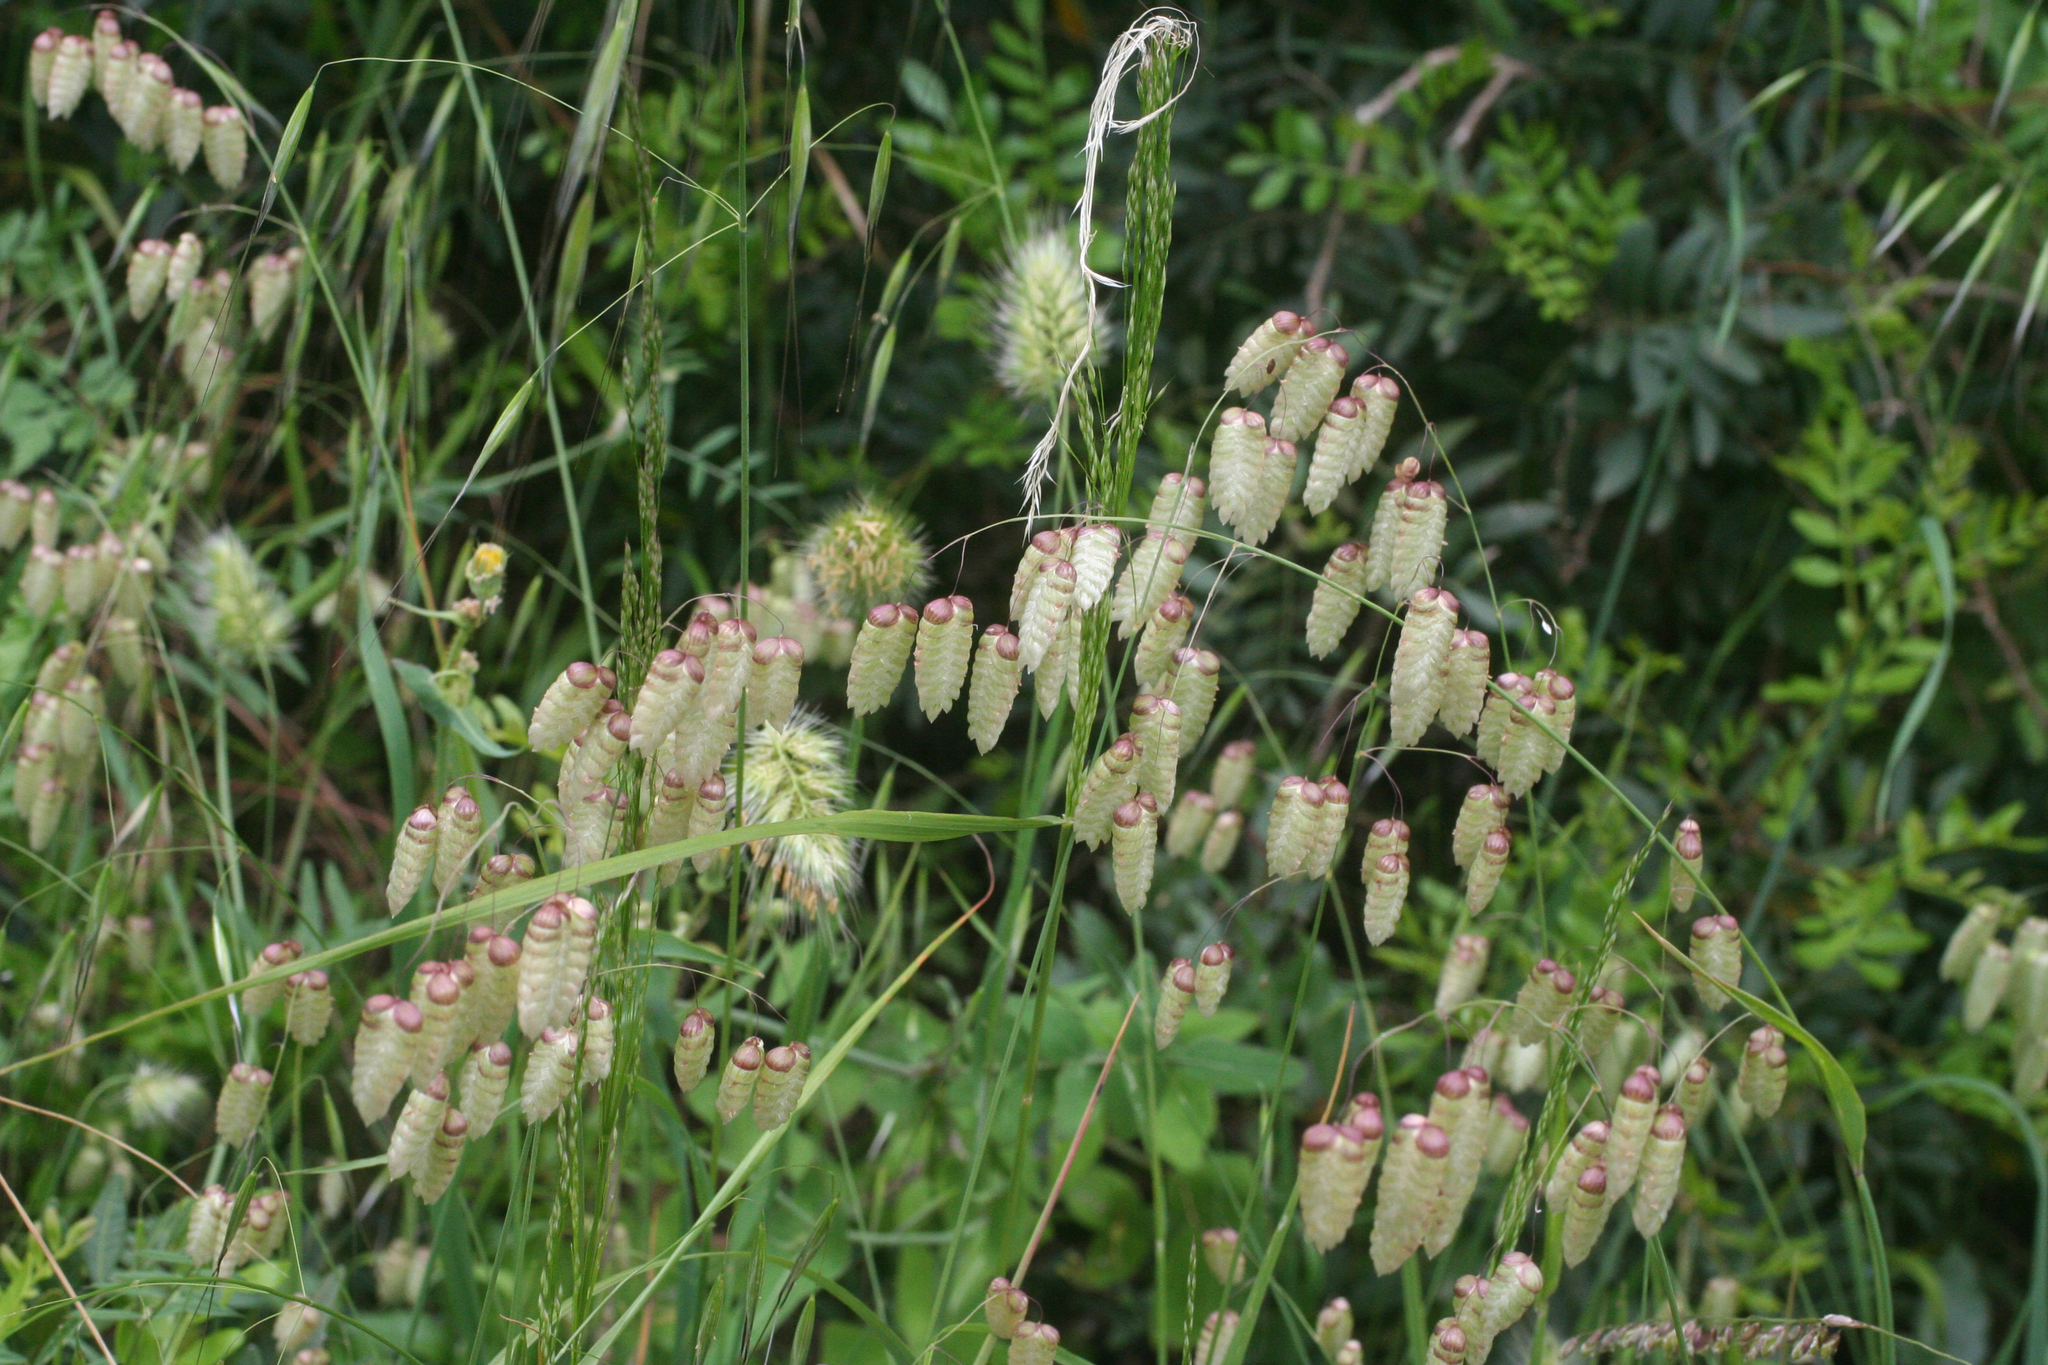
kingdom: Plantae
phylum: Tracheophyta
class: Liliopsida
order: Poales
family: Poaceae
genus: Briza
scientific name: Briza maxima
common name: Big quakinggrass
